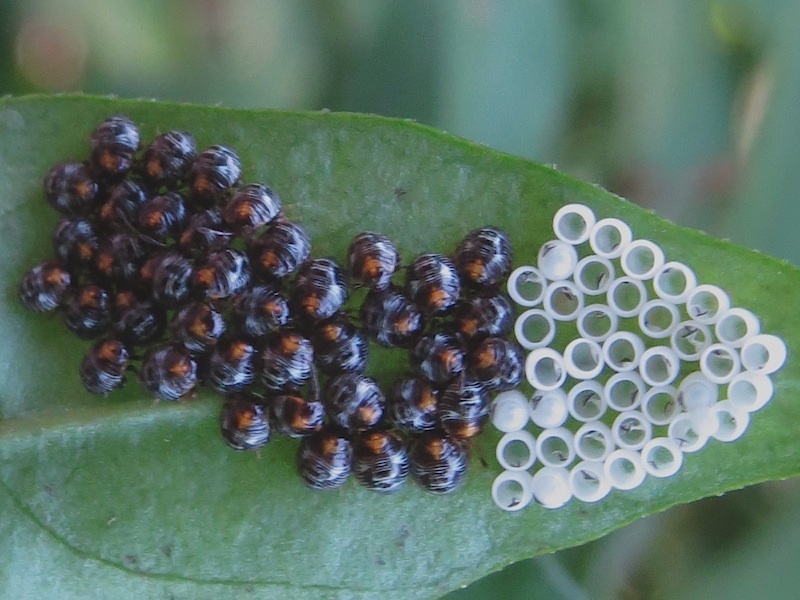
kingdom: Animalia
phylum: Arthropoda
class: Insecta
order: Hemiptera
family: Pentatomidae
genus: Chinavia
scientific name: Chinavia hilaris
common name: Green stink bug
